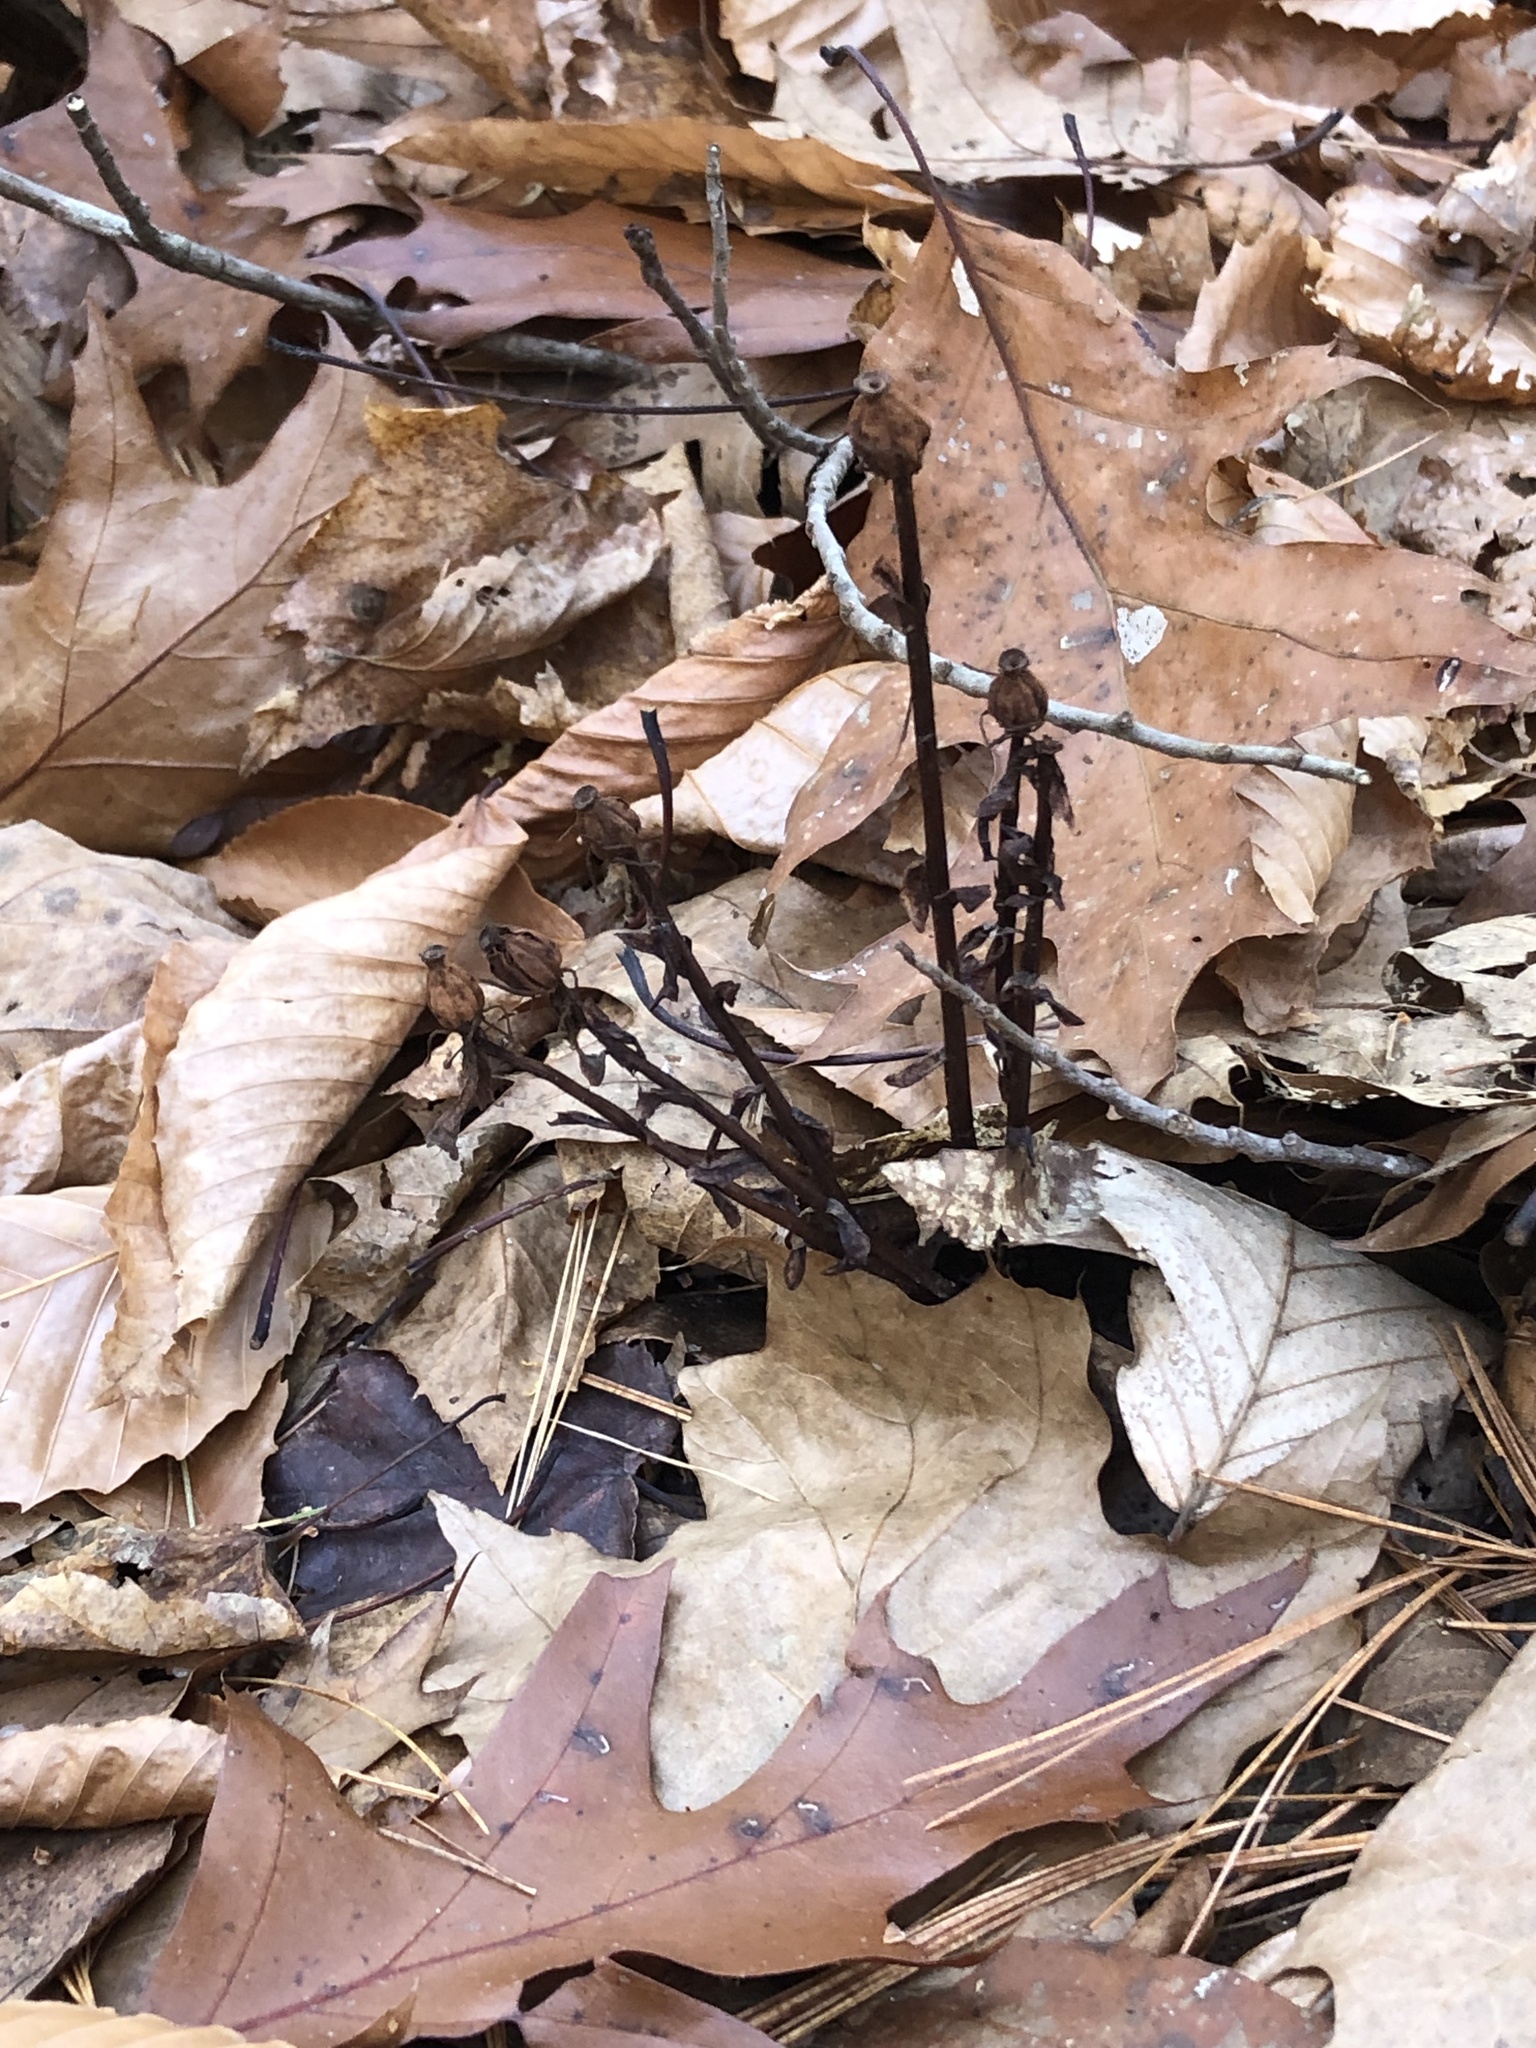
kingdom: Plantae
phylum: Tracheophyta
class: Magnoliopsida
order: Ericales
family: Ericaceae
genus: Monotropa
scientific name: Monotropa uniflora
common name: Convulsion root
